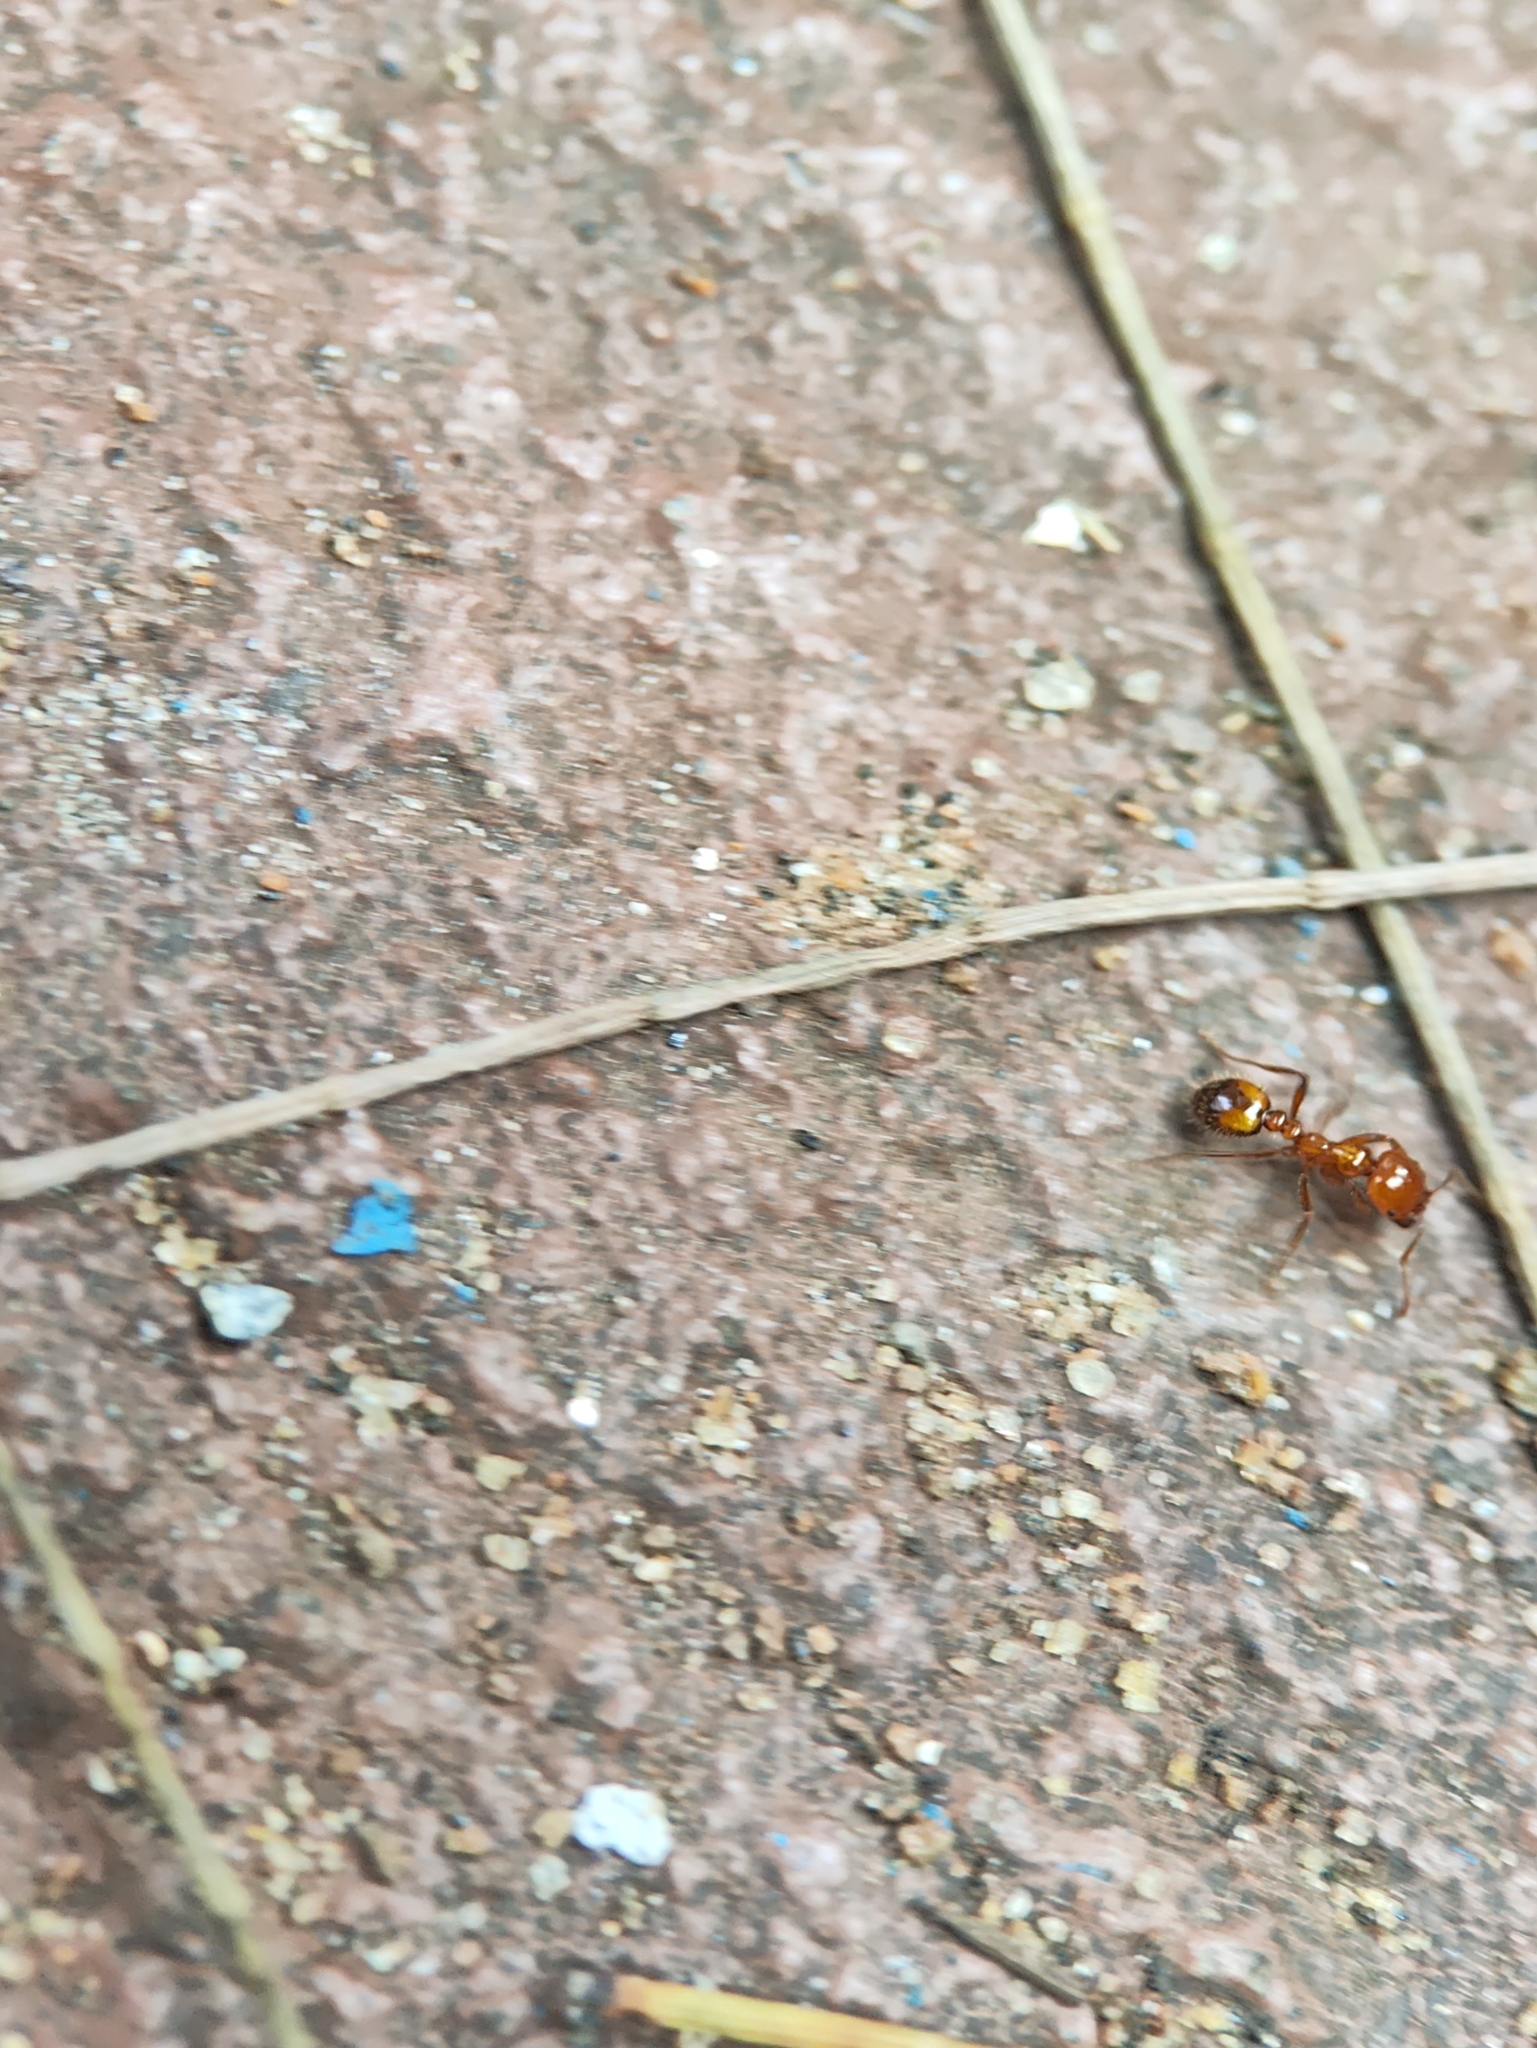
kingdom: Animalia
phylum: Arthropoda
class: Insecta
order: Hymenoptera
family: Formicidae
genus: Solenopsis
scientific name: Solenopsis geminata
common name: Tropical fire ant
